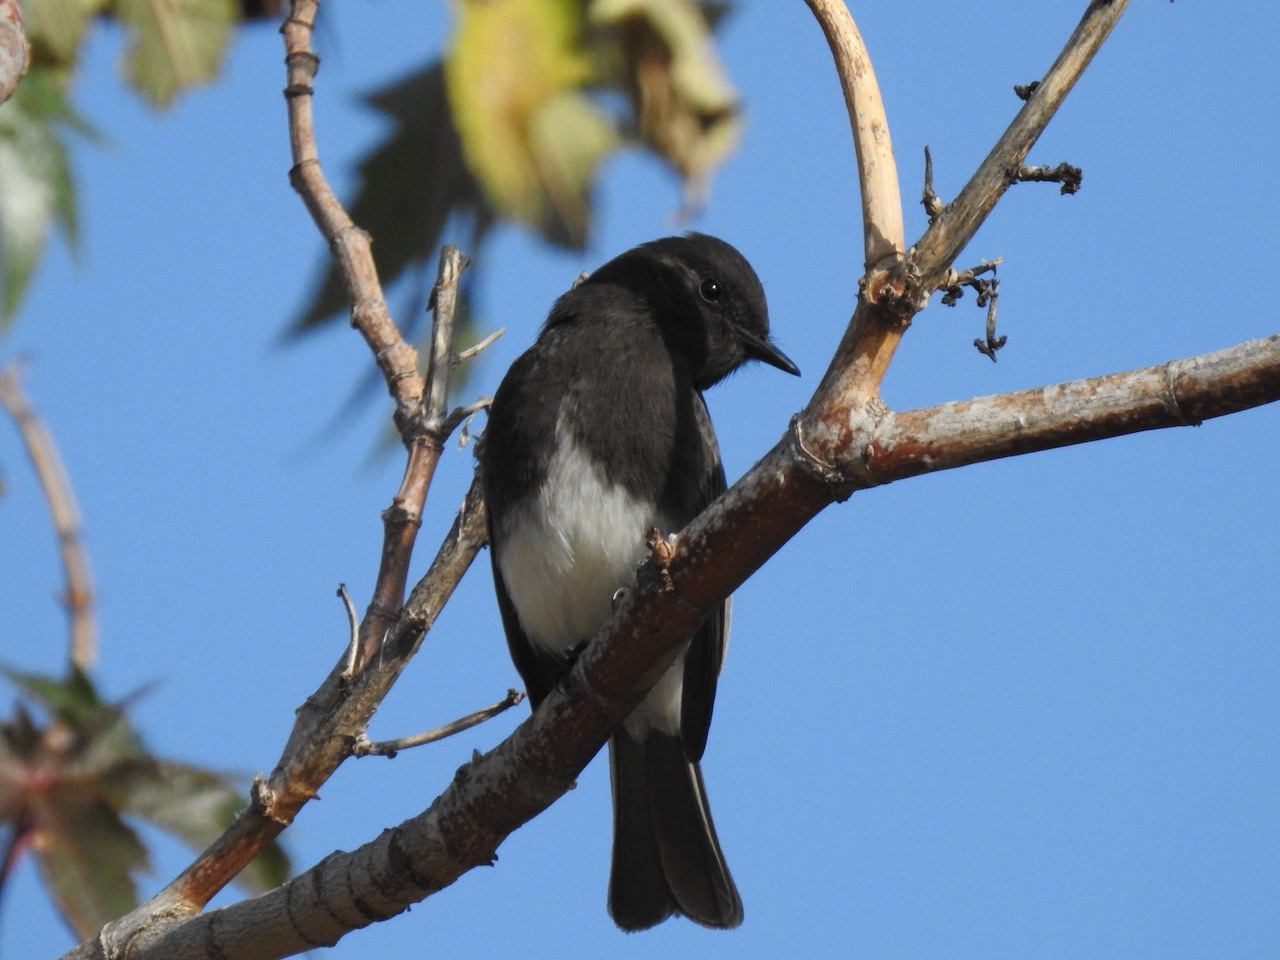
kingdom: Animalia
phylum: Chordata
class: Aves
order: Passeriformes
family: Tyrannidae
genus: Sayornis
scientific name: Sayornis nigricans
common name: Black phoebe
